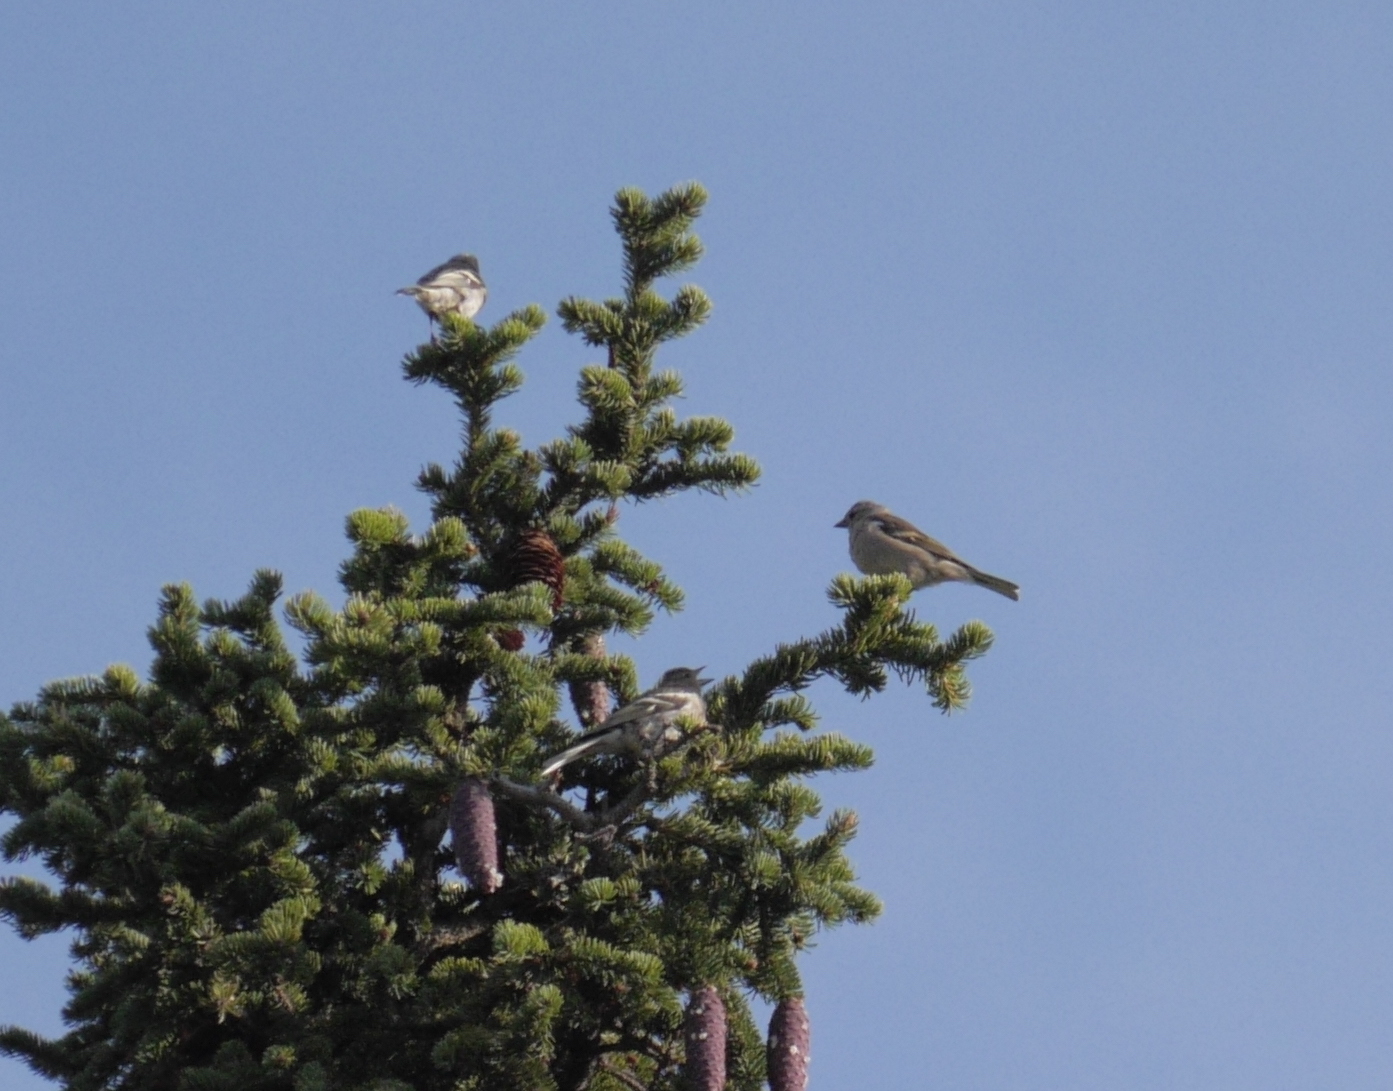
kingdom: Animalia
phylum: Chordata
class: Aves
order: Passeriformes
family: Fringillidae
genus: Fringilla
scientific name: Fringilla coelebs
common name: Common chaffinch
